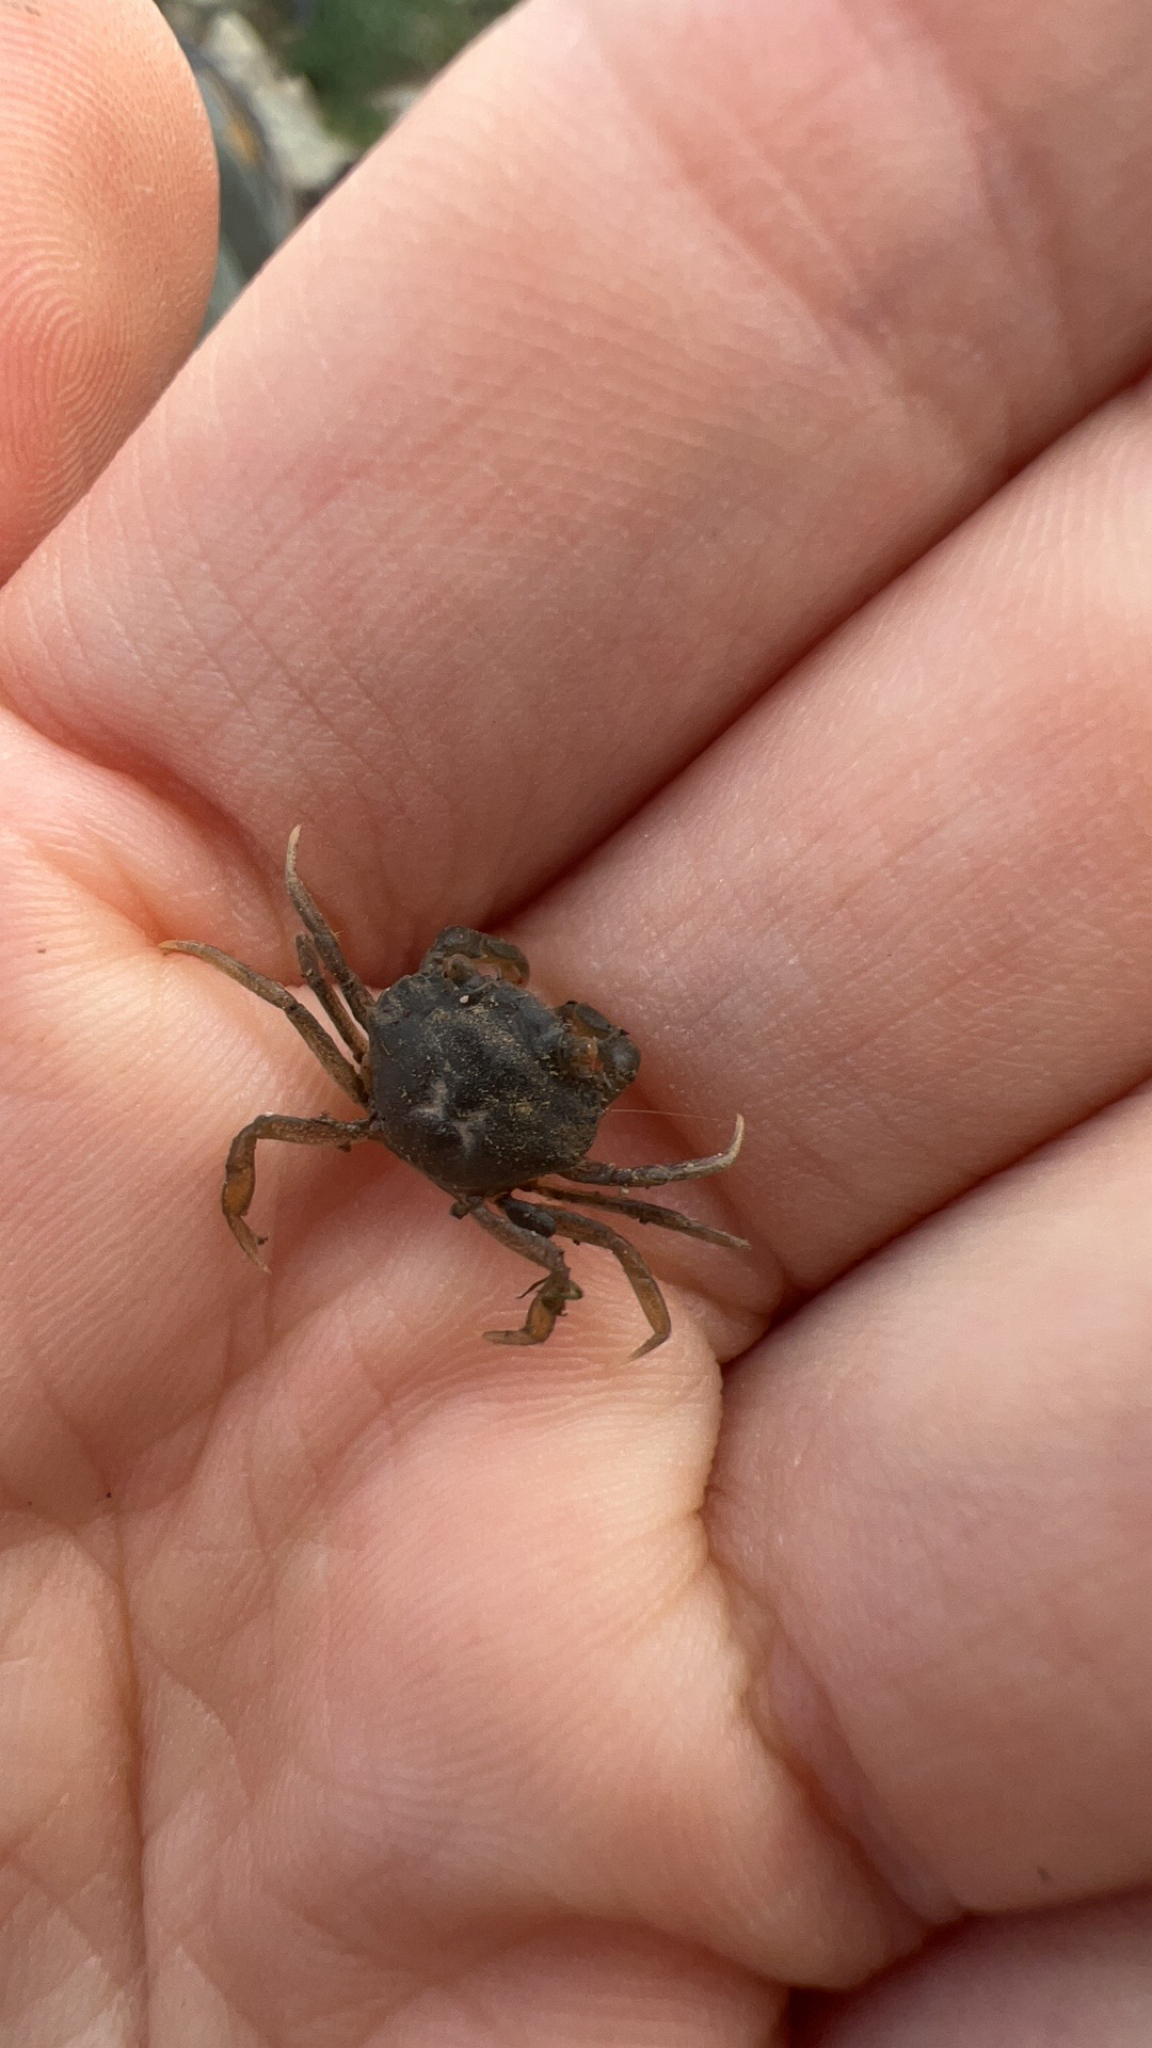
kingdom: Animalia
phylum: Arthropoda
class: Malacostraca
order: Decapoda
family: Carcinidae
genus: Carcinus
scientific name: Carcinus maenas
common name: European green crab
